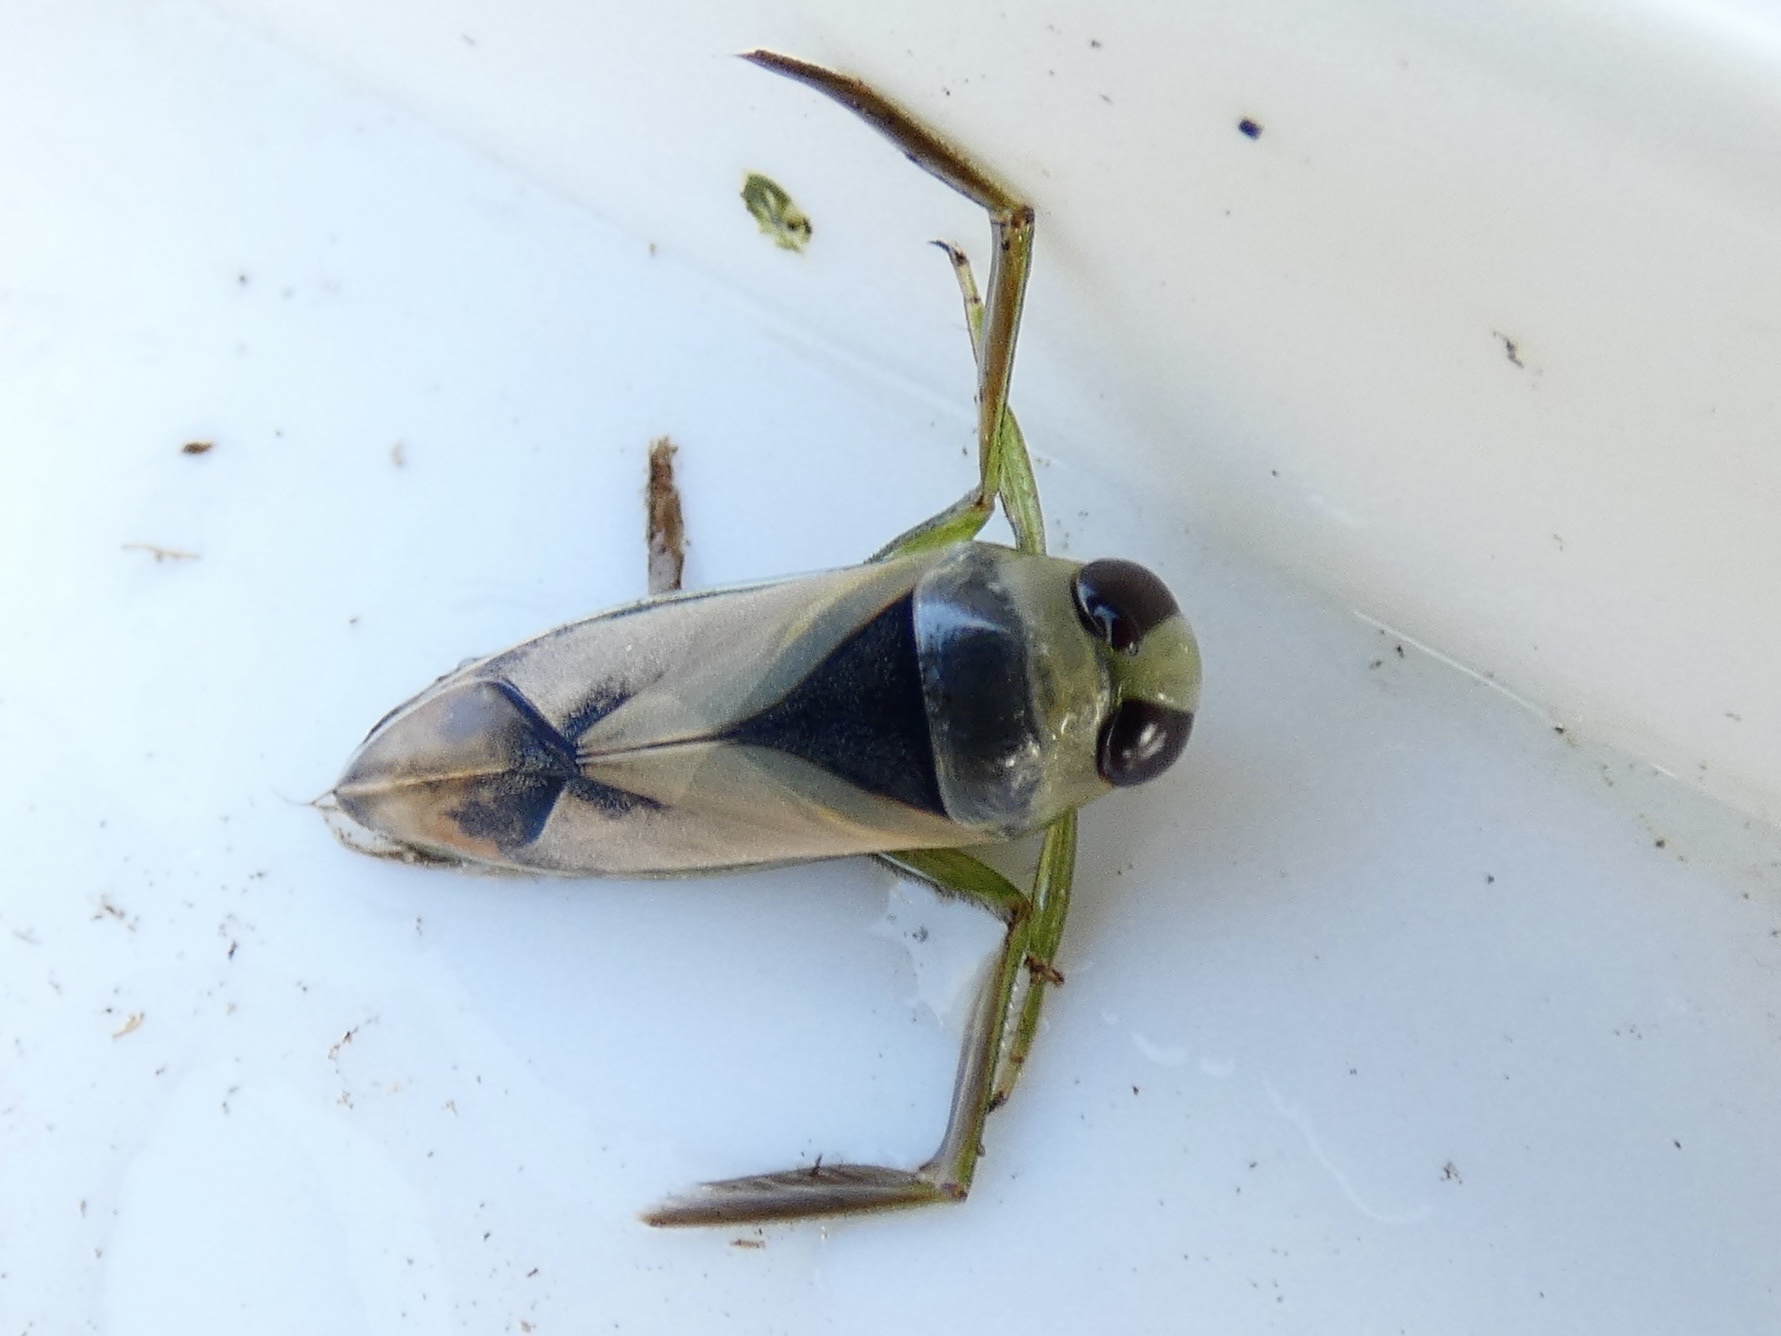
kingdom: Animalia
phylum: Arthropoda
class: Insecta
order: Hemiptera
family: Notonectidae
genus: Notonecta
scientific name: Notonecta viridis
